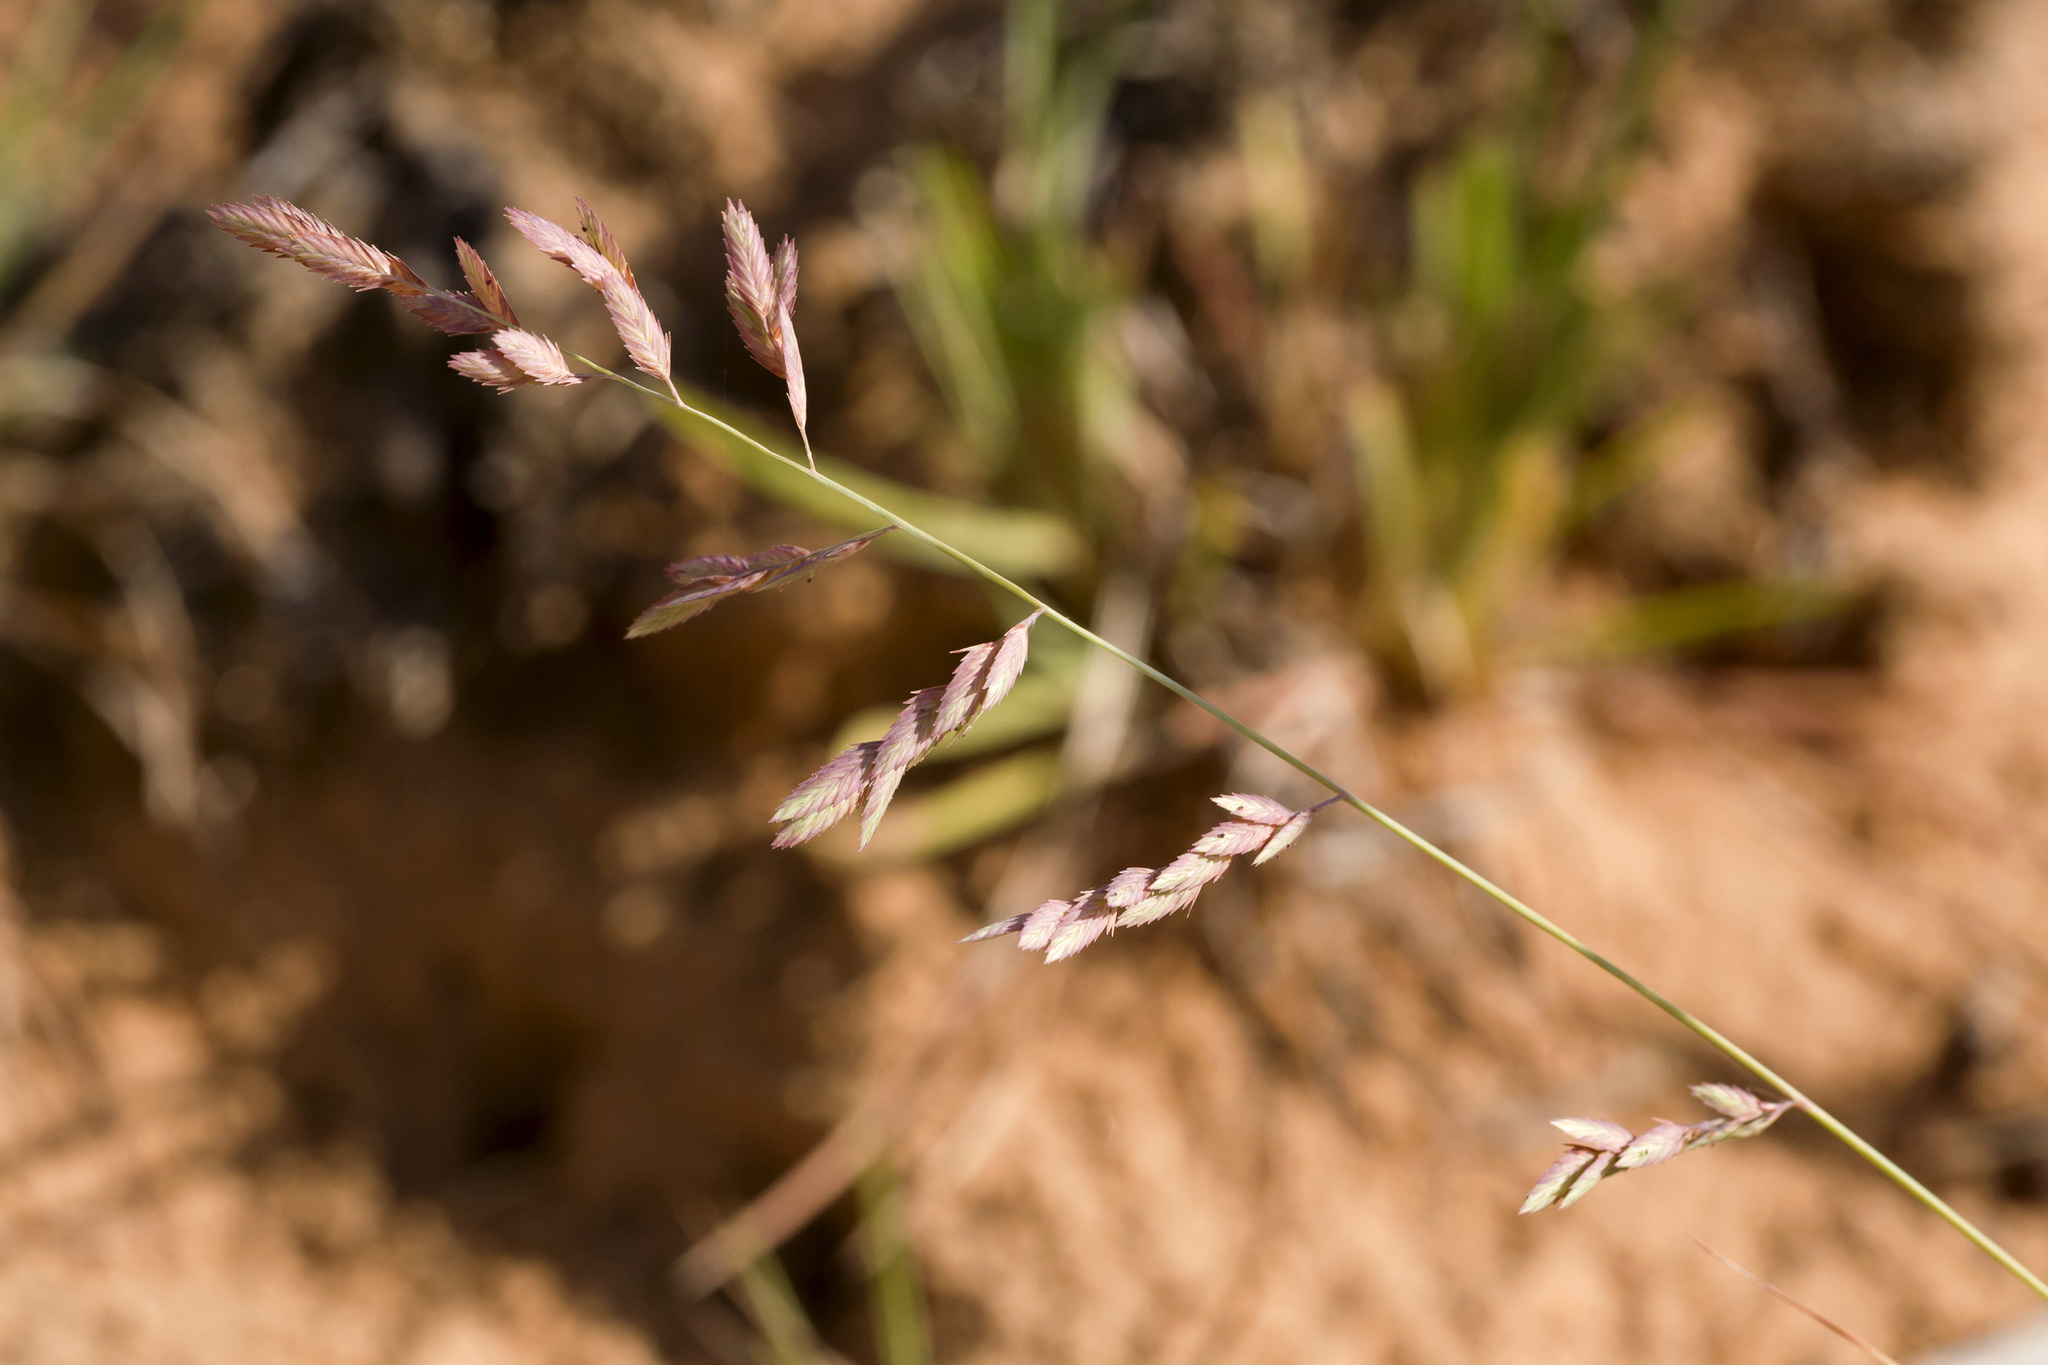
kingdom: Plantae
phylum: Tracheophyta
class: Liliopsida
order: Poales
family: Poaceae
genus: Eragrostis
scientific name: Eragrostis secundiflora
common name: Red love grass
